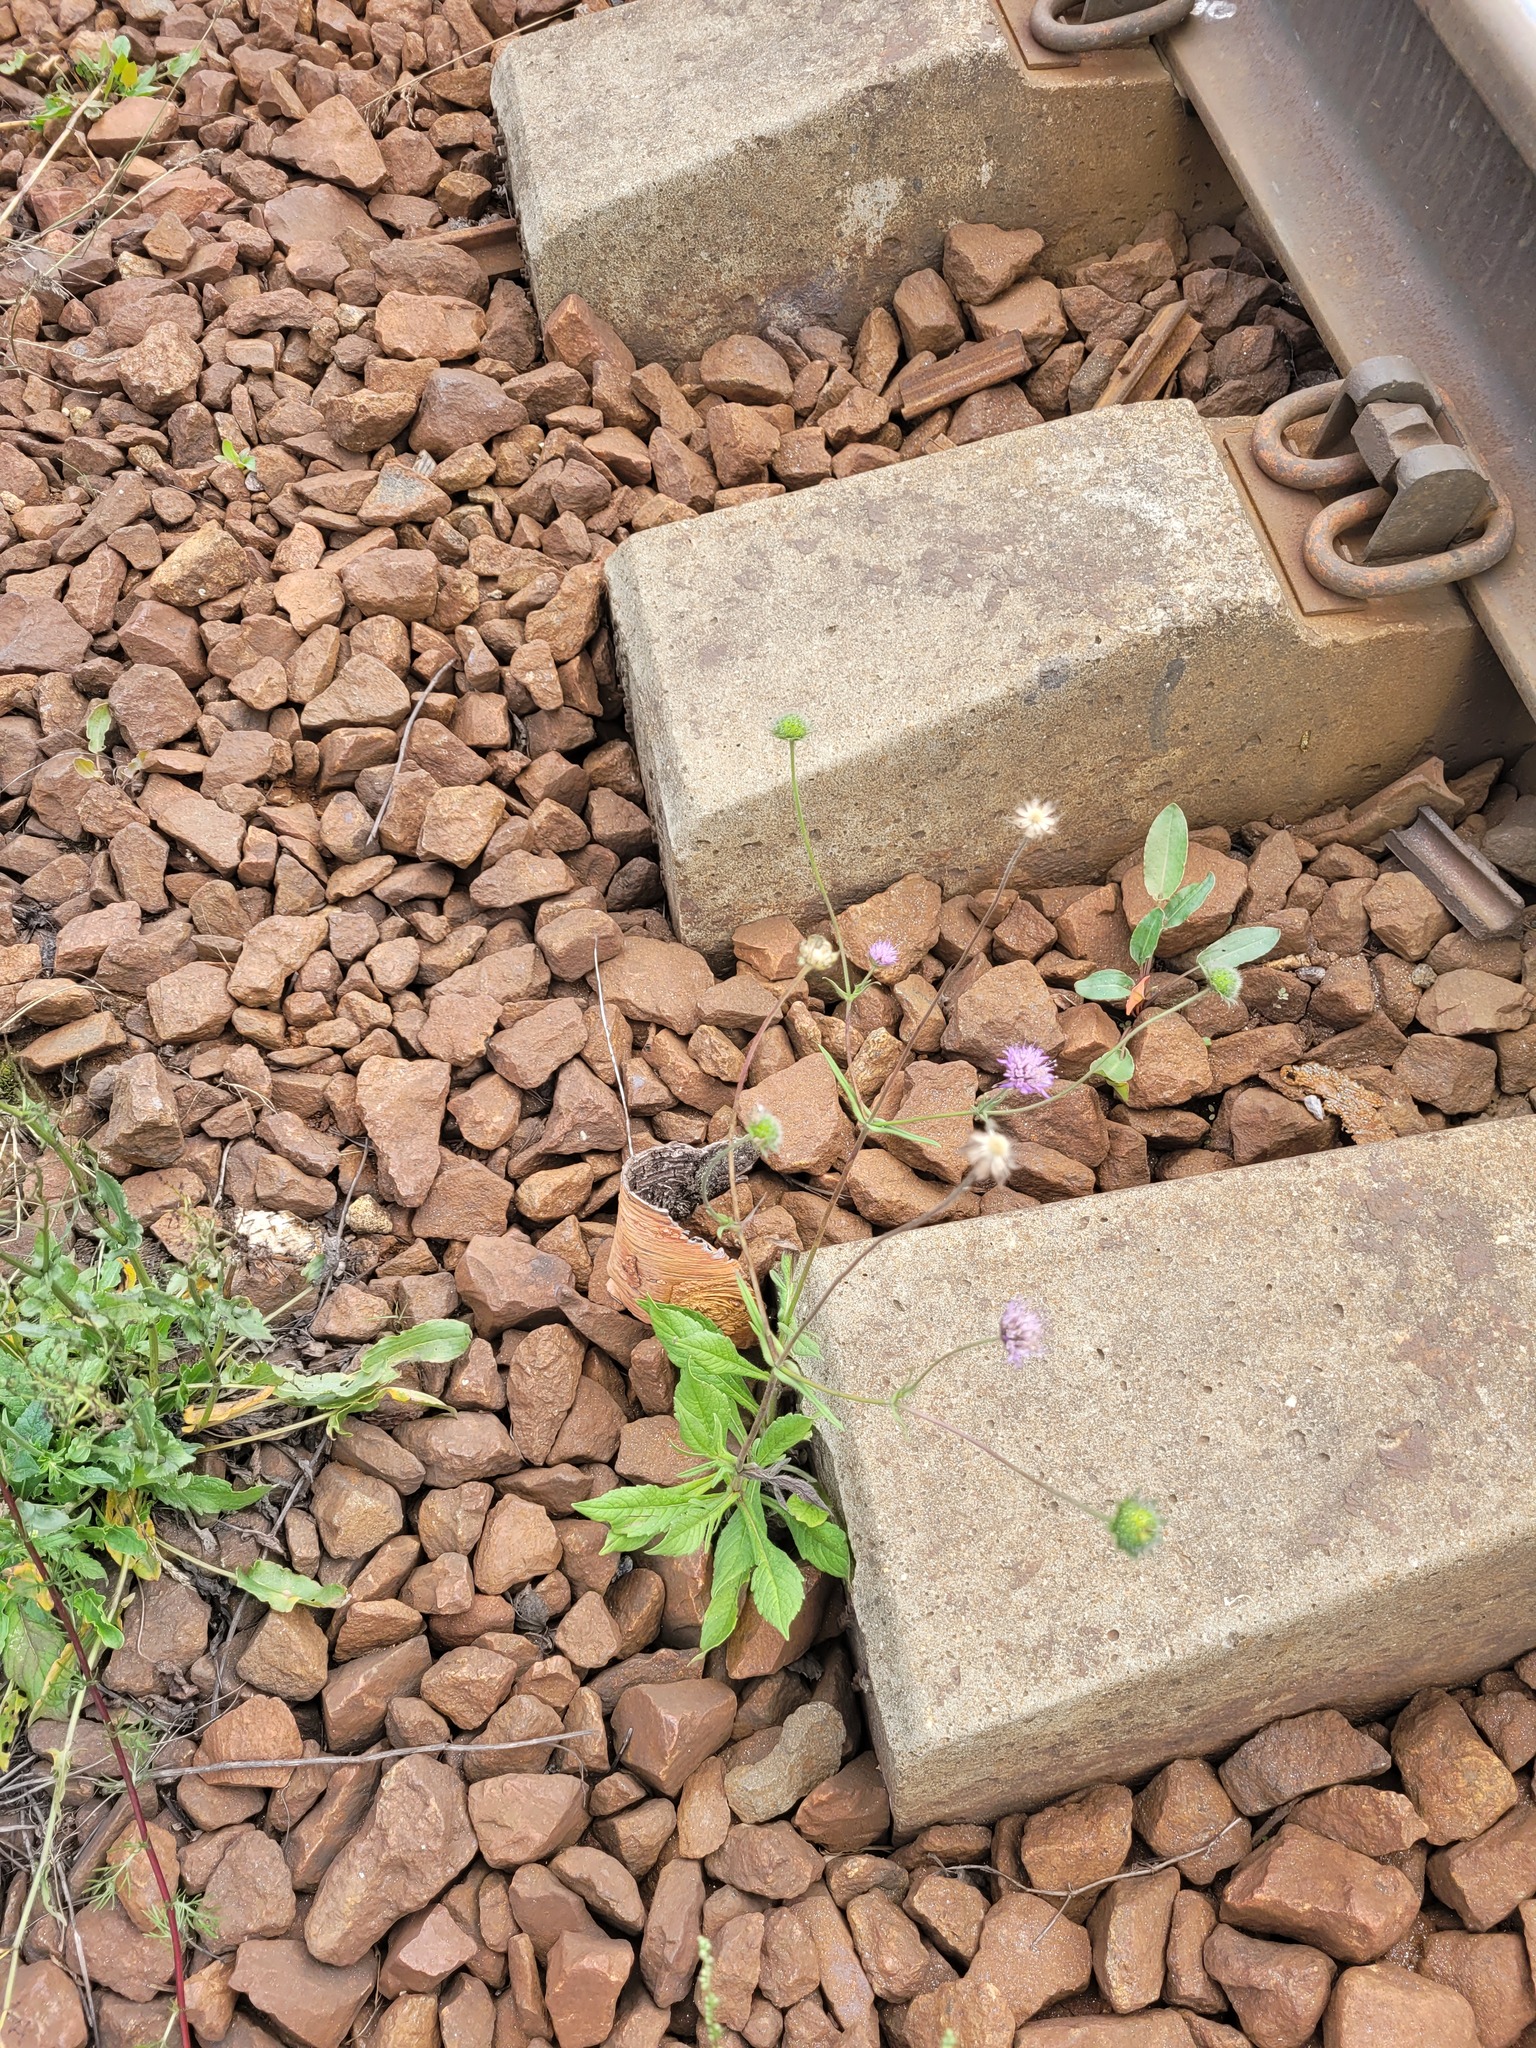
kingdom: Plantae
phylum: Tracheophyta
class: Magnoliopsida
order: Dipsacales
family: Caprifoliaceae
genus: Knautia
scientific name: Knautia arvensis
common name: Field scabiosa
